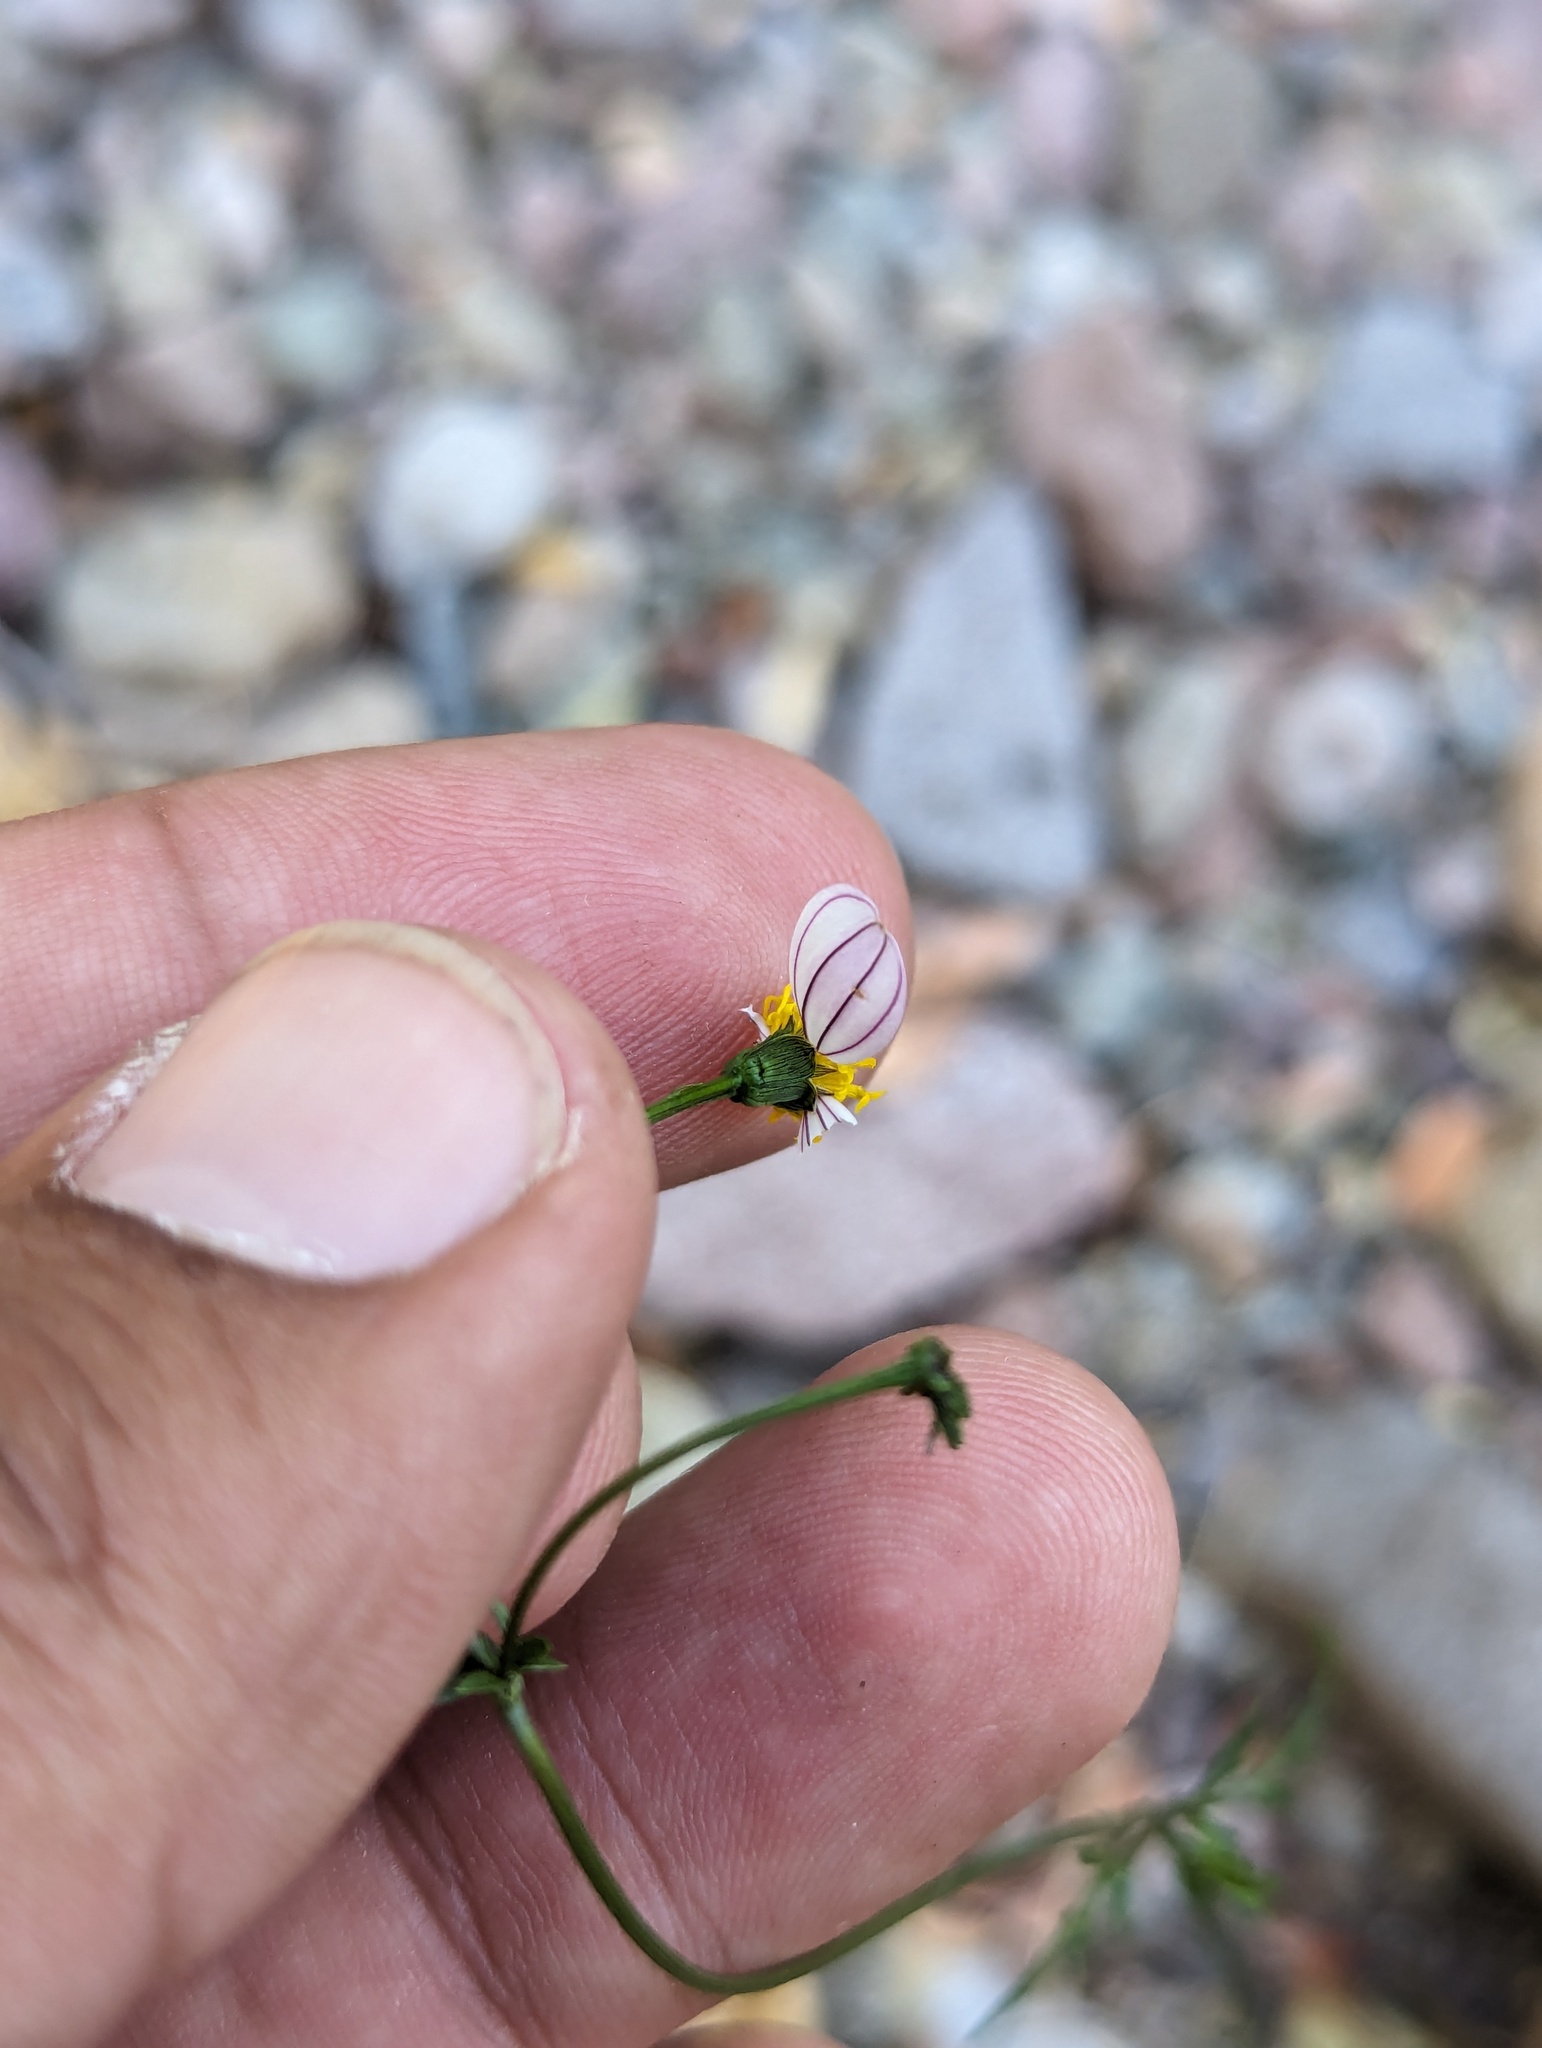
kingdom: Plantae
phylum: Tracheophyta
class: Magnoliopsida
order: Asterales
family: Asteraceae
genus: Coreocarpus
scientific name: Coreocarpus parthenioides
